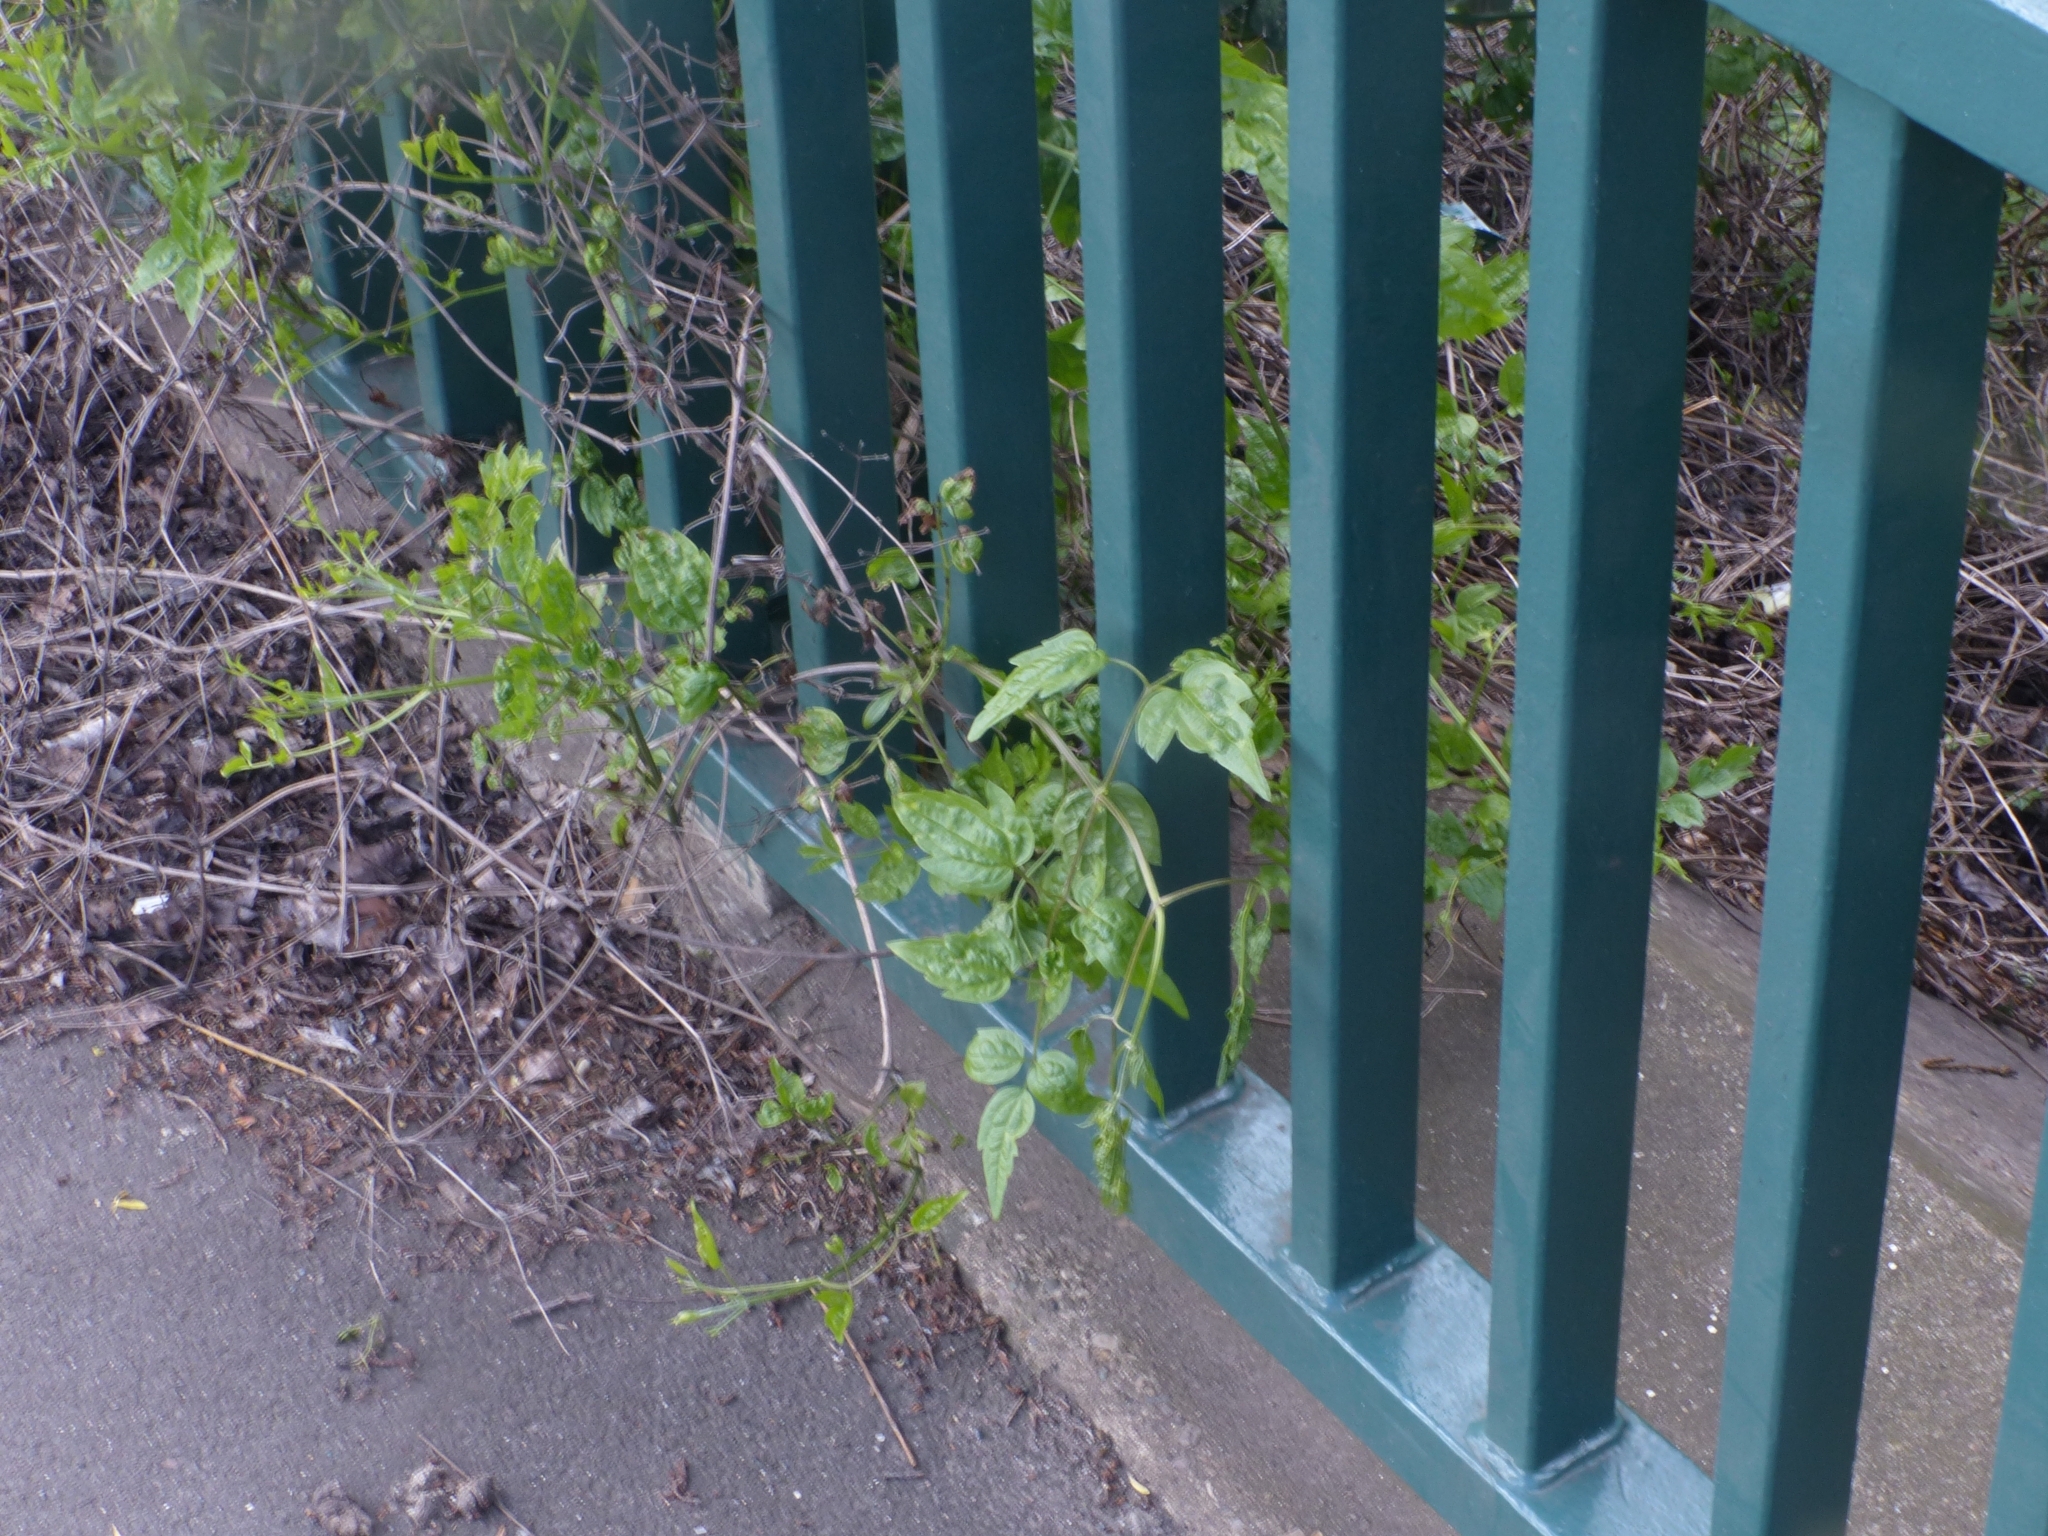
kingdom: Plantae
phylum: Tracheophyta
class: Magnoliopsida
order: Ranunculales
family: Ranunculaceae
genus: Clematis
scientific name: Clematis vitalba
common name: Evergreen clematis
